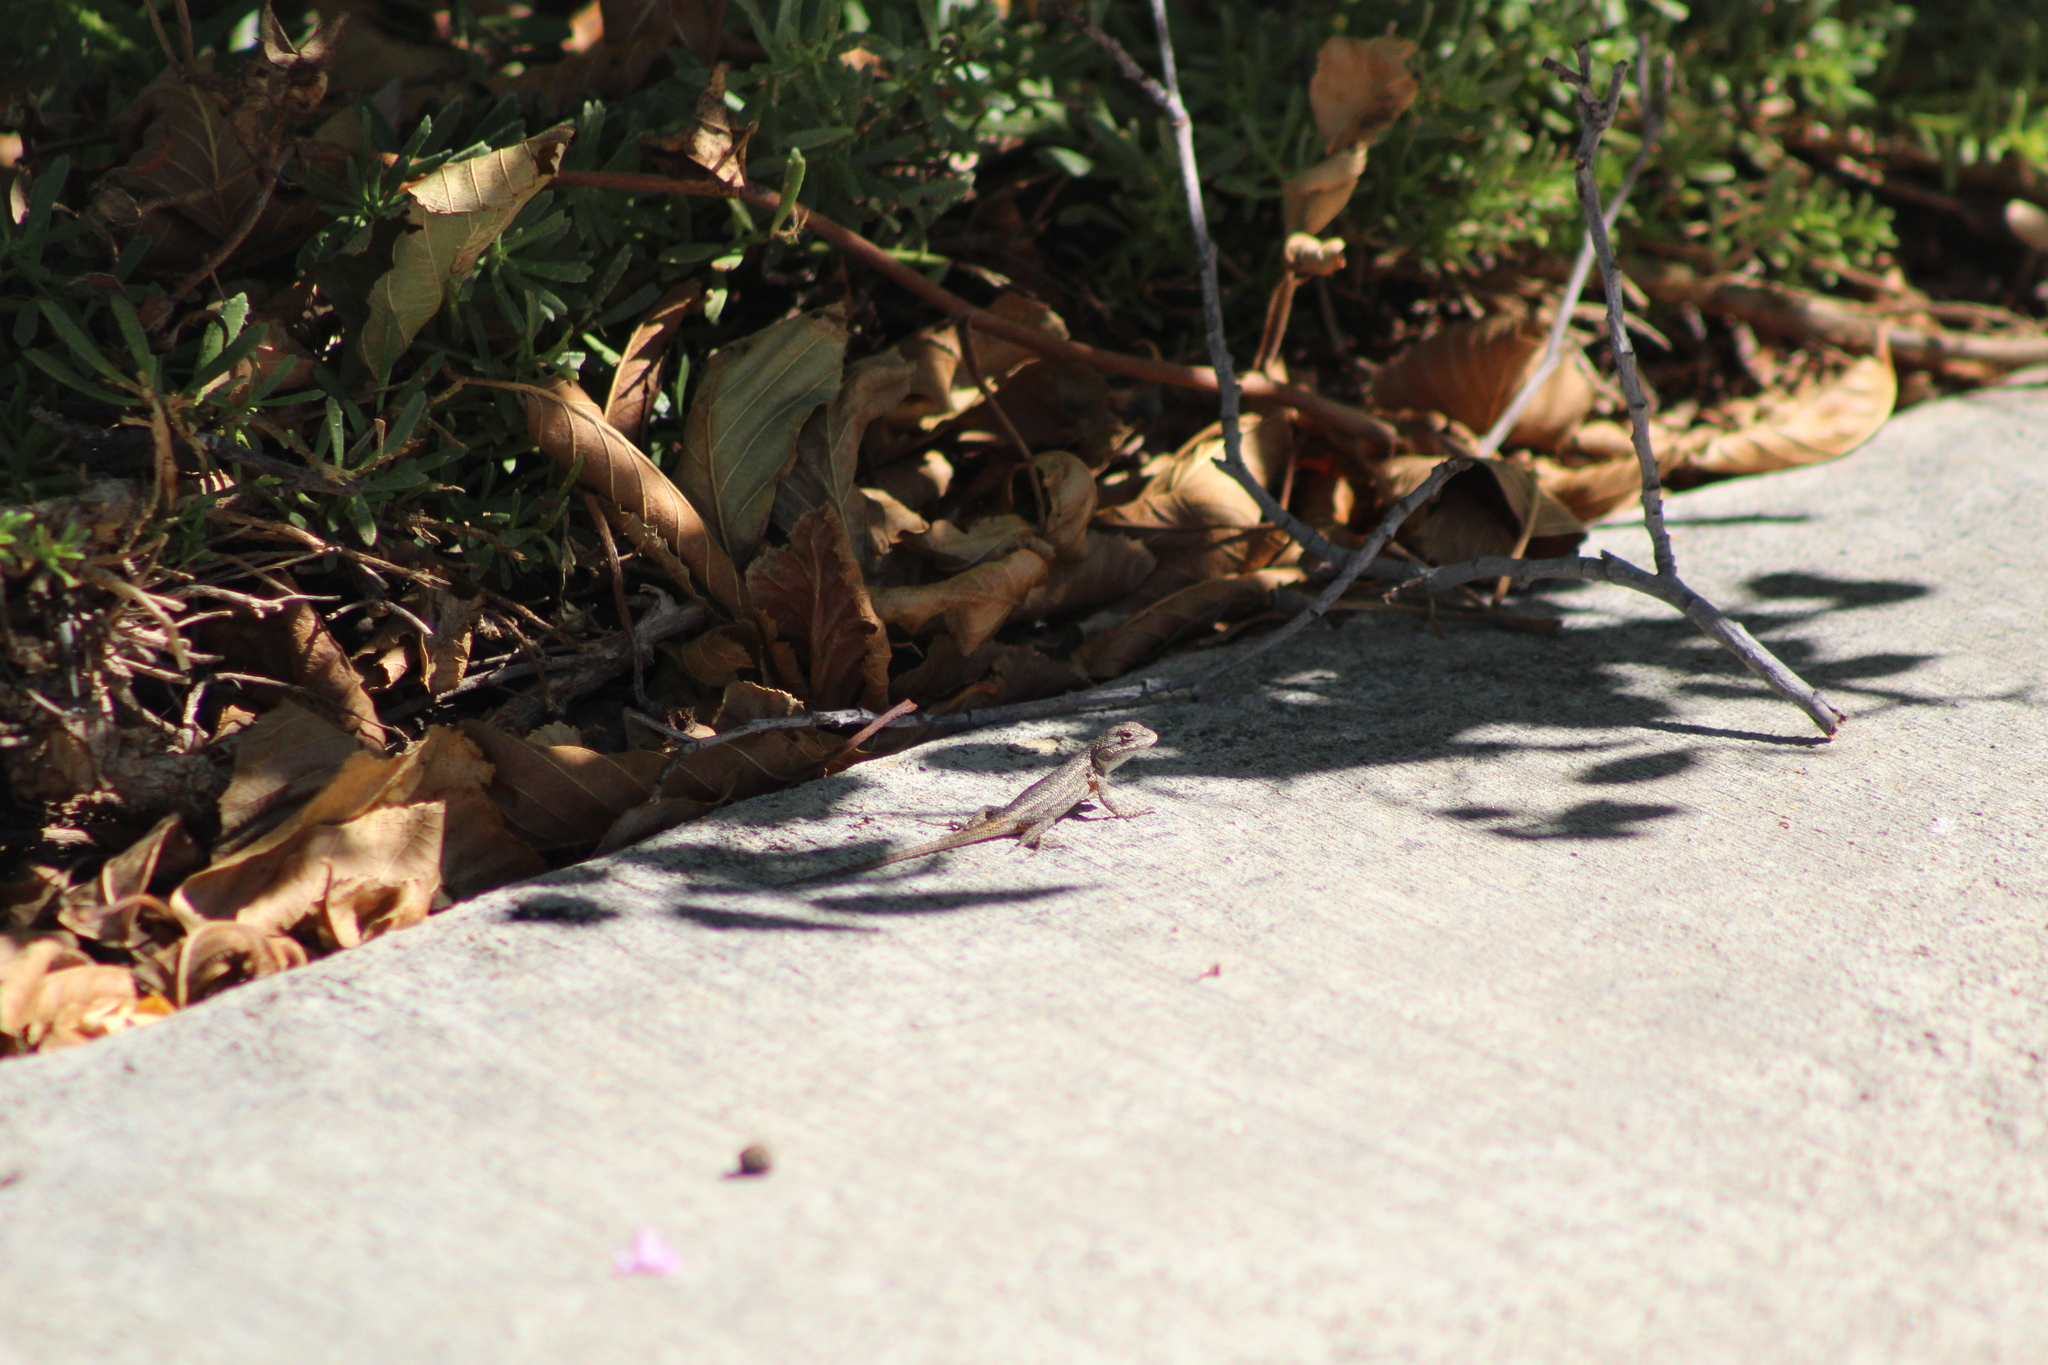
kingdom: Animalia
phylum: Chordata
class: Squamata
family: Phrynosomatidae
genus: Sceloporus
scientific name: Sceloporus occidentalis
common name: Western fence lizard
